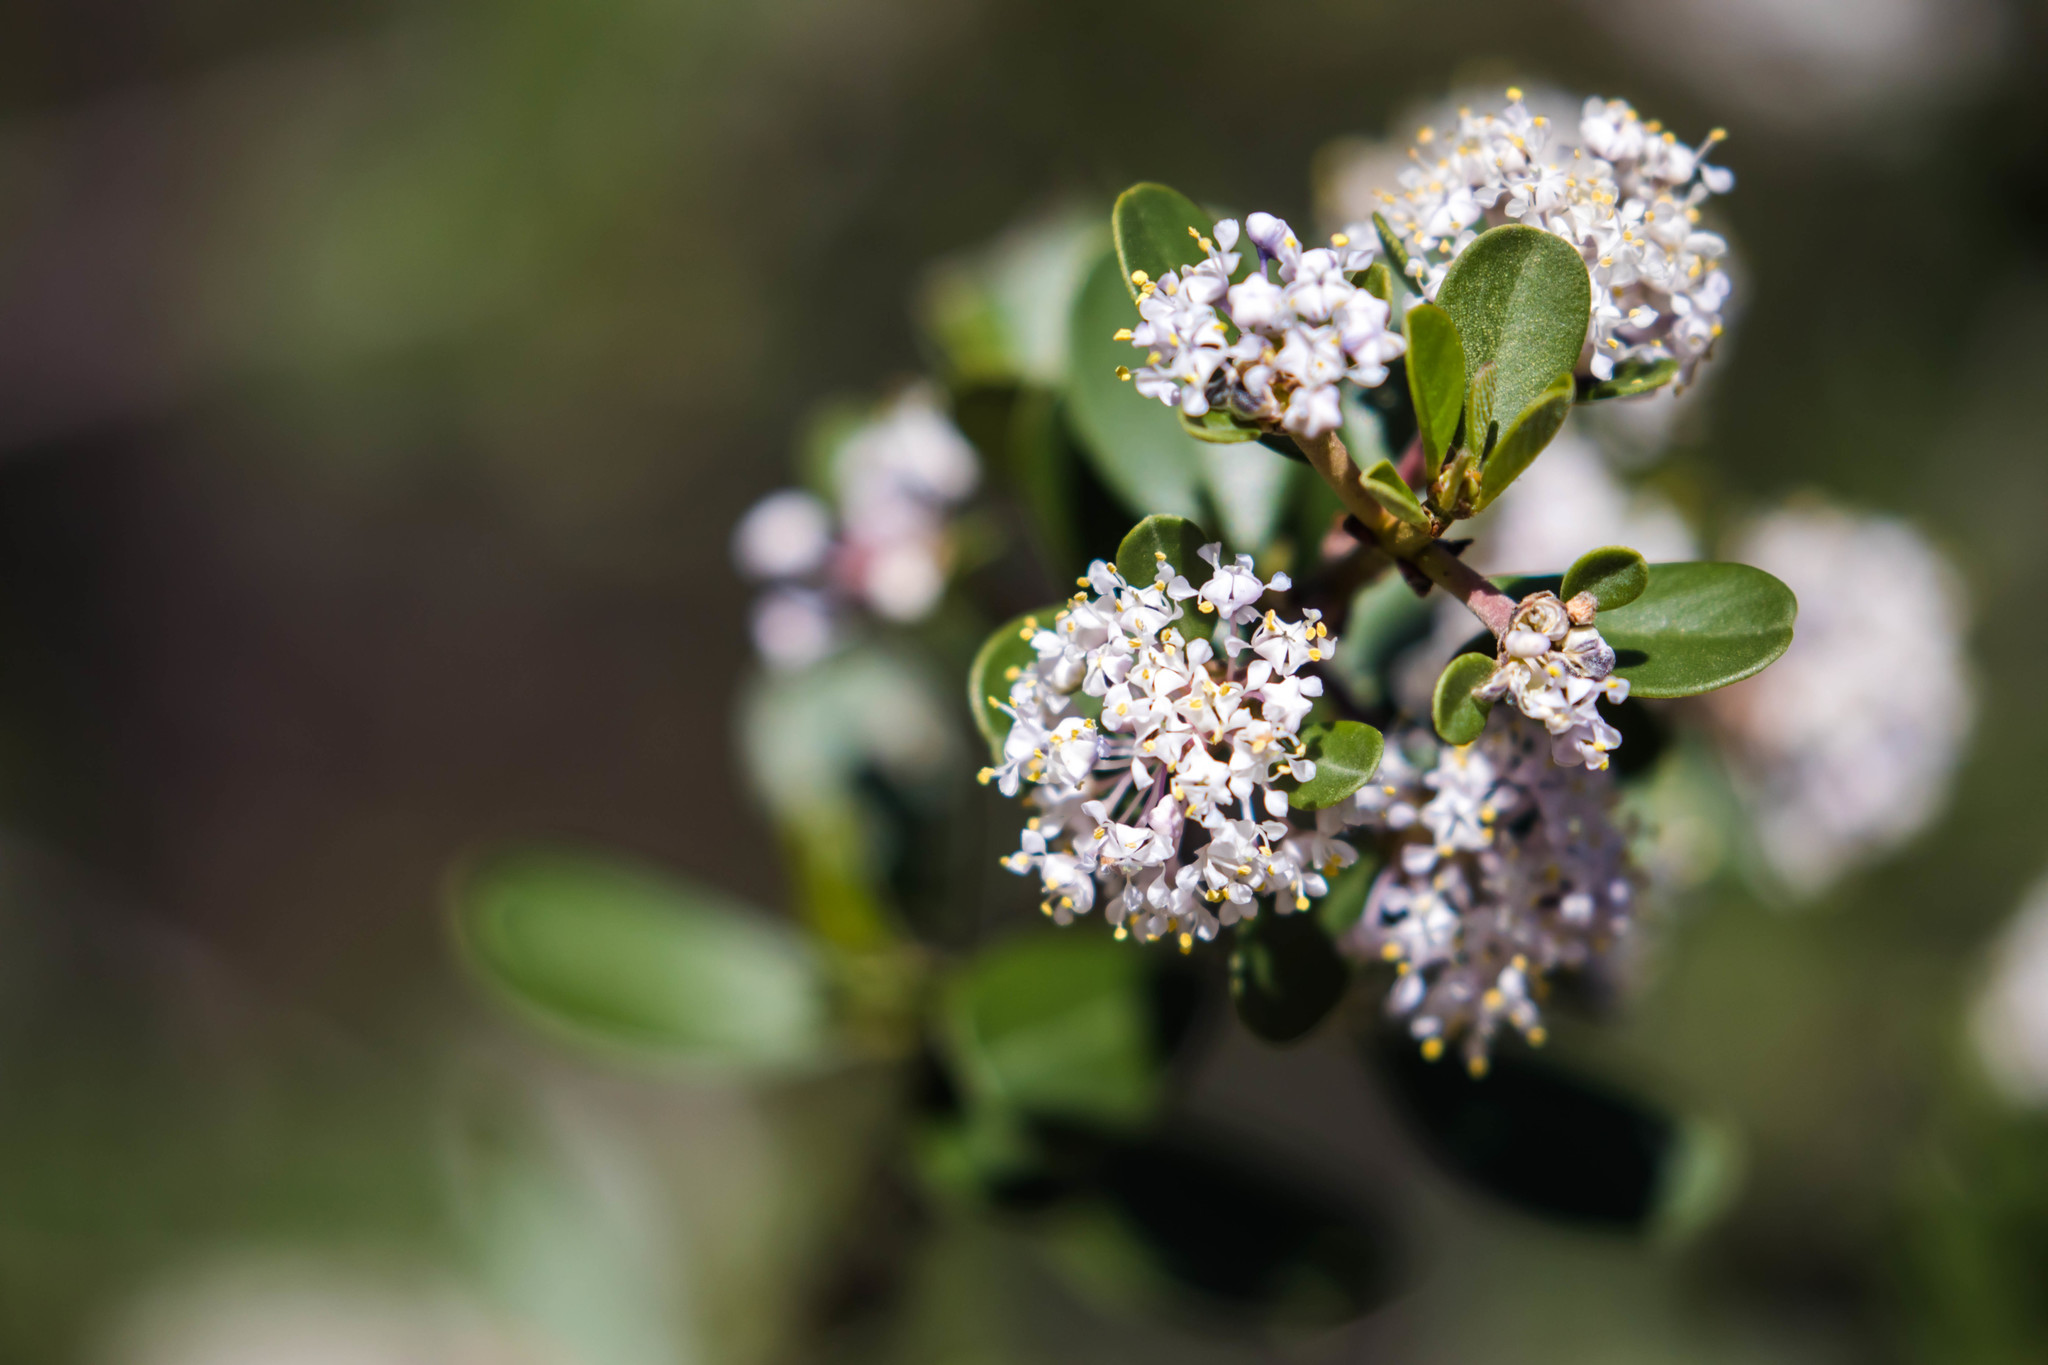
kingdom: Plantae
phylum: Tracheophyta
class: Magnoliopsida
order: Rosales
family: Rhamnaceae
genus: Ceanothus
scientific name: Ceanothus cuneatus
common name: Cuneate ceanothus
